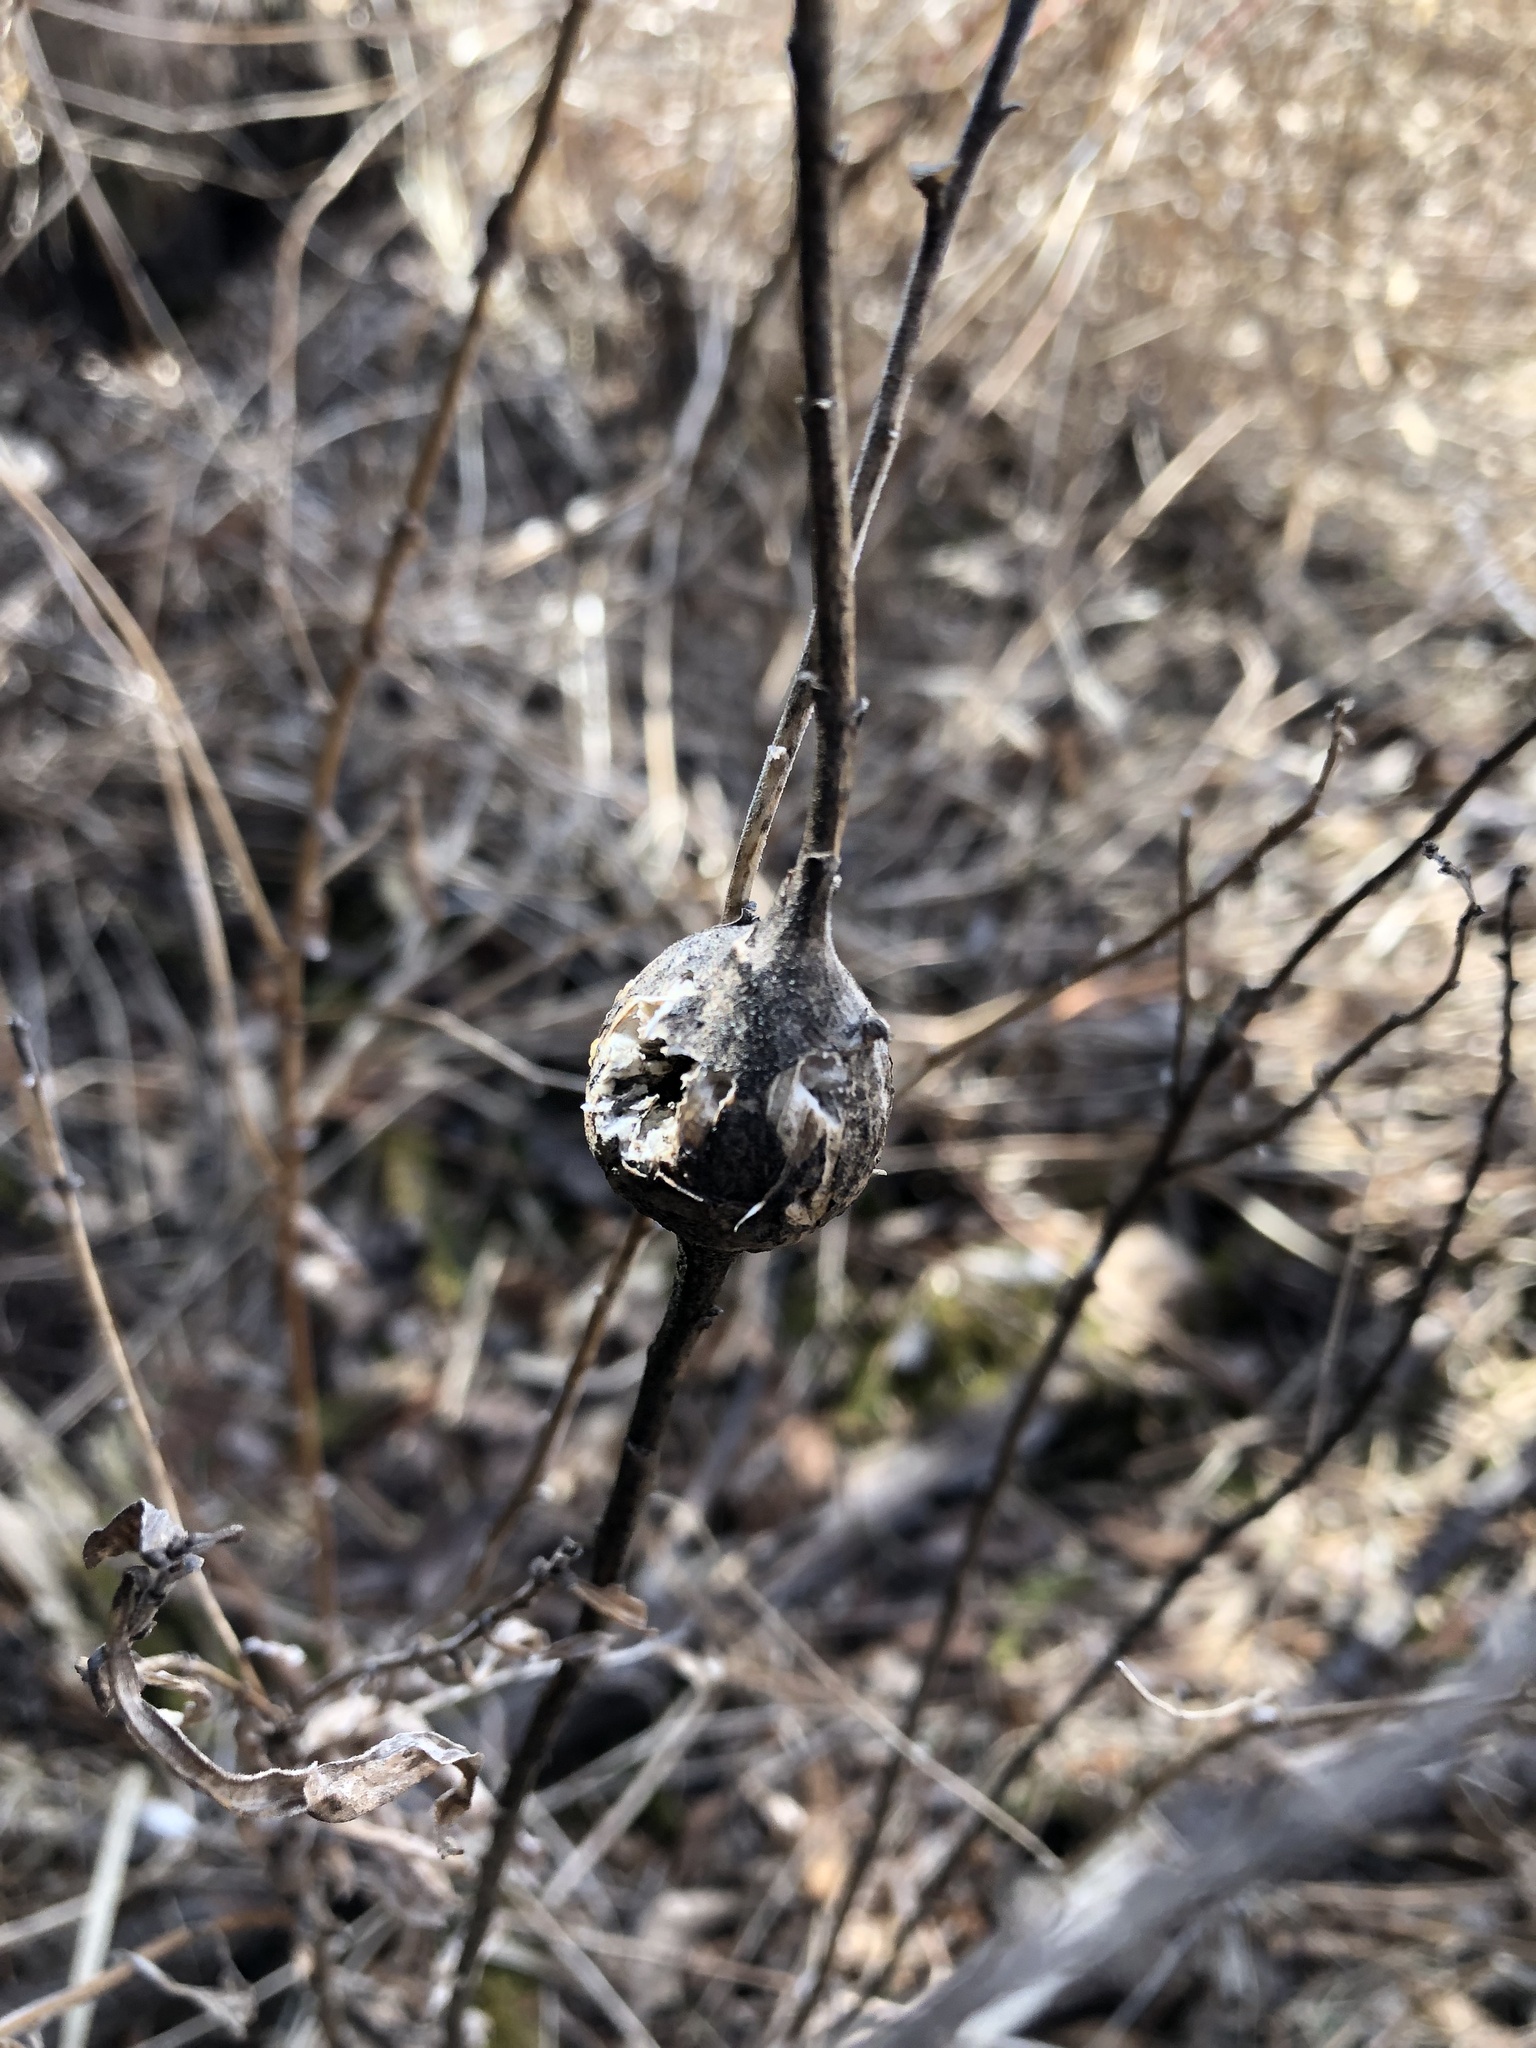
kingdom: Animalia
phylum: Arthropoda
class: Insecta
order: Diptera
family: Tephritidae
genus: Eurosta
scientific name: Eurosta solidaginis
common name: Goldenrod gall fly
